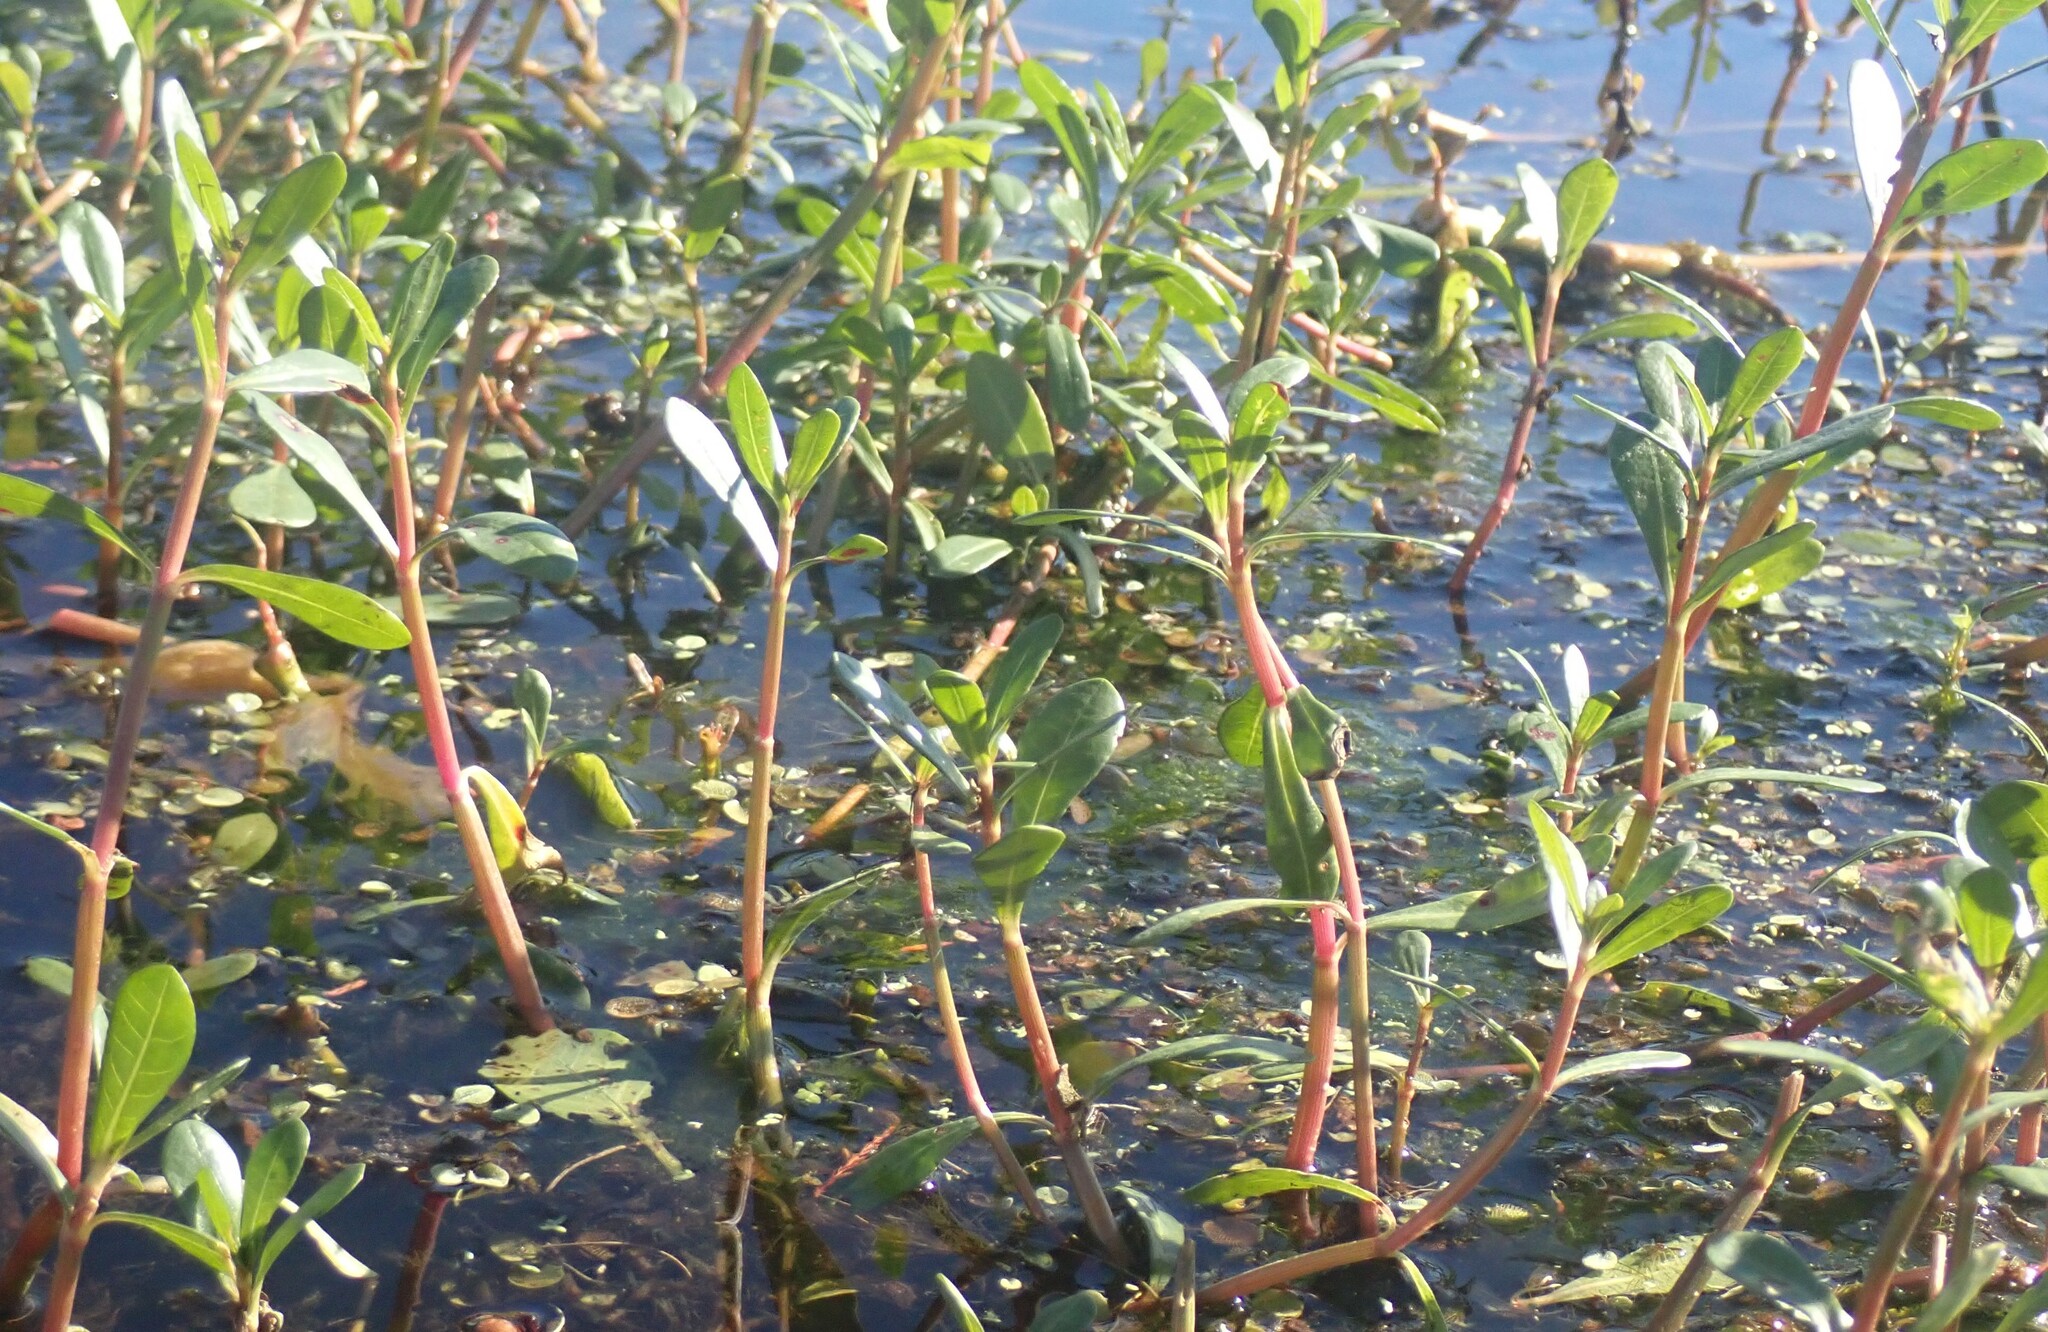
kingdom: Plantae
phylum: Tracheophyta
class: Magnoliopsida
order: Caryophyllales
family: Amaranthaceae
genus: Alternanthera
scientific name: Alternanthera philoxeroides
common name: Alligatorweed
